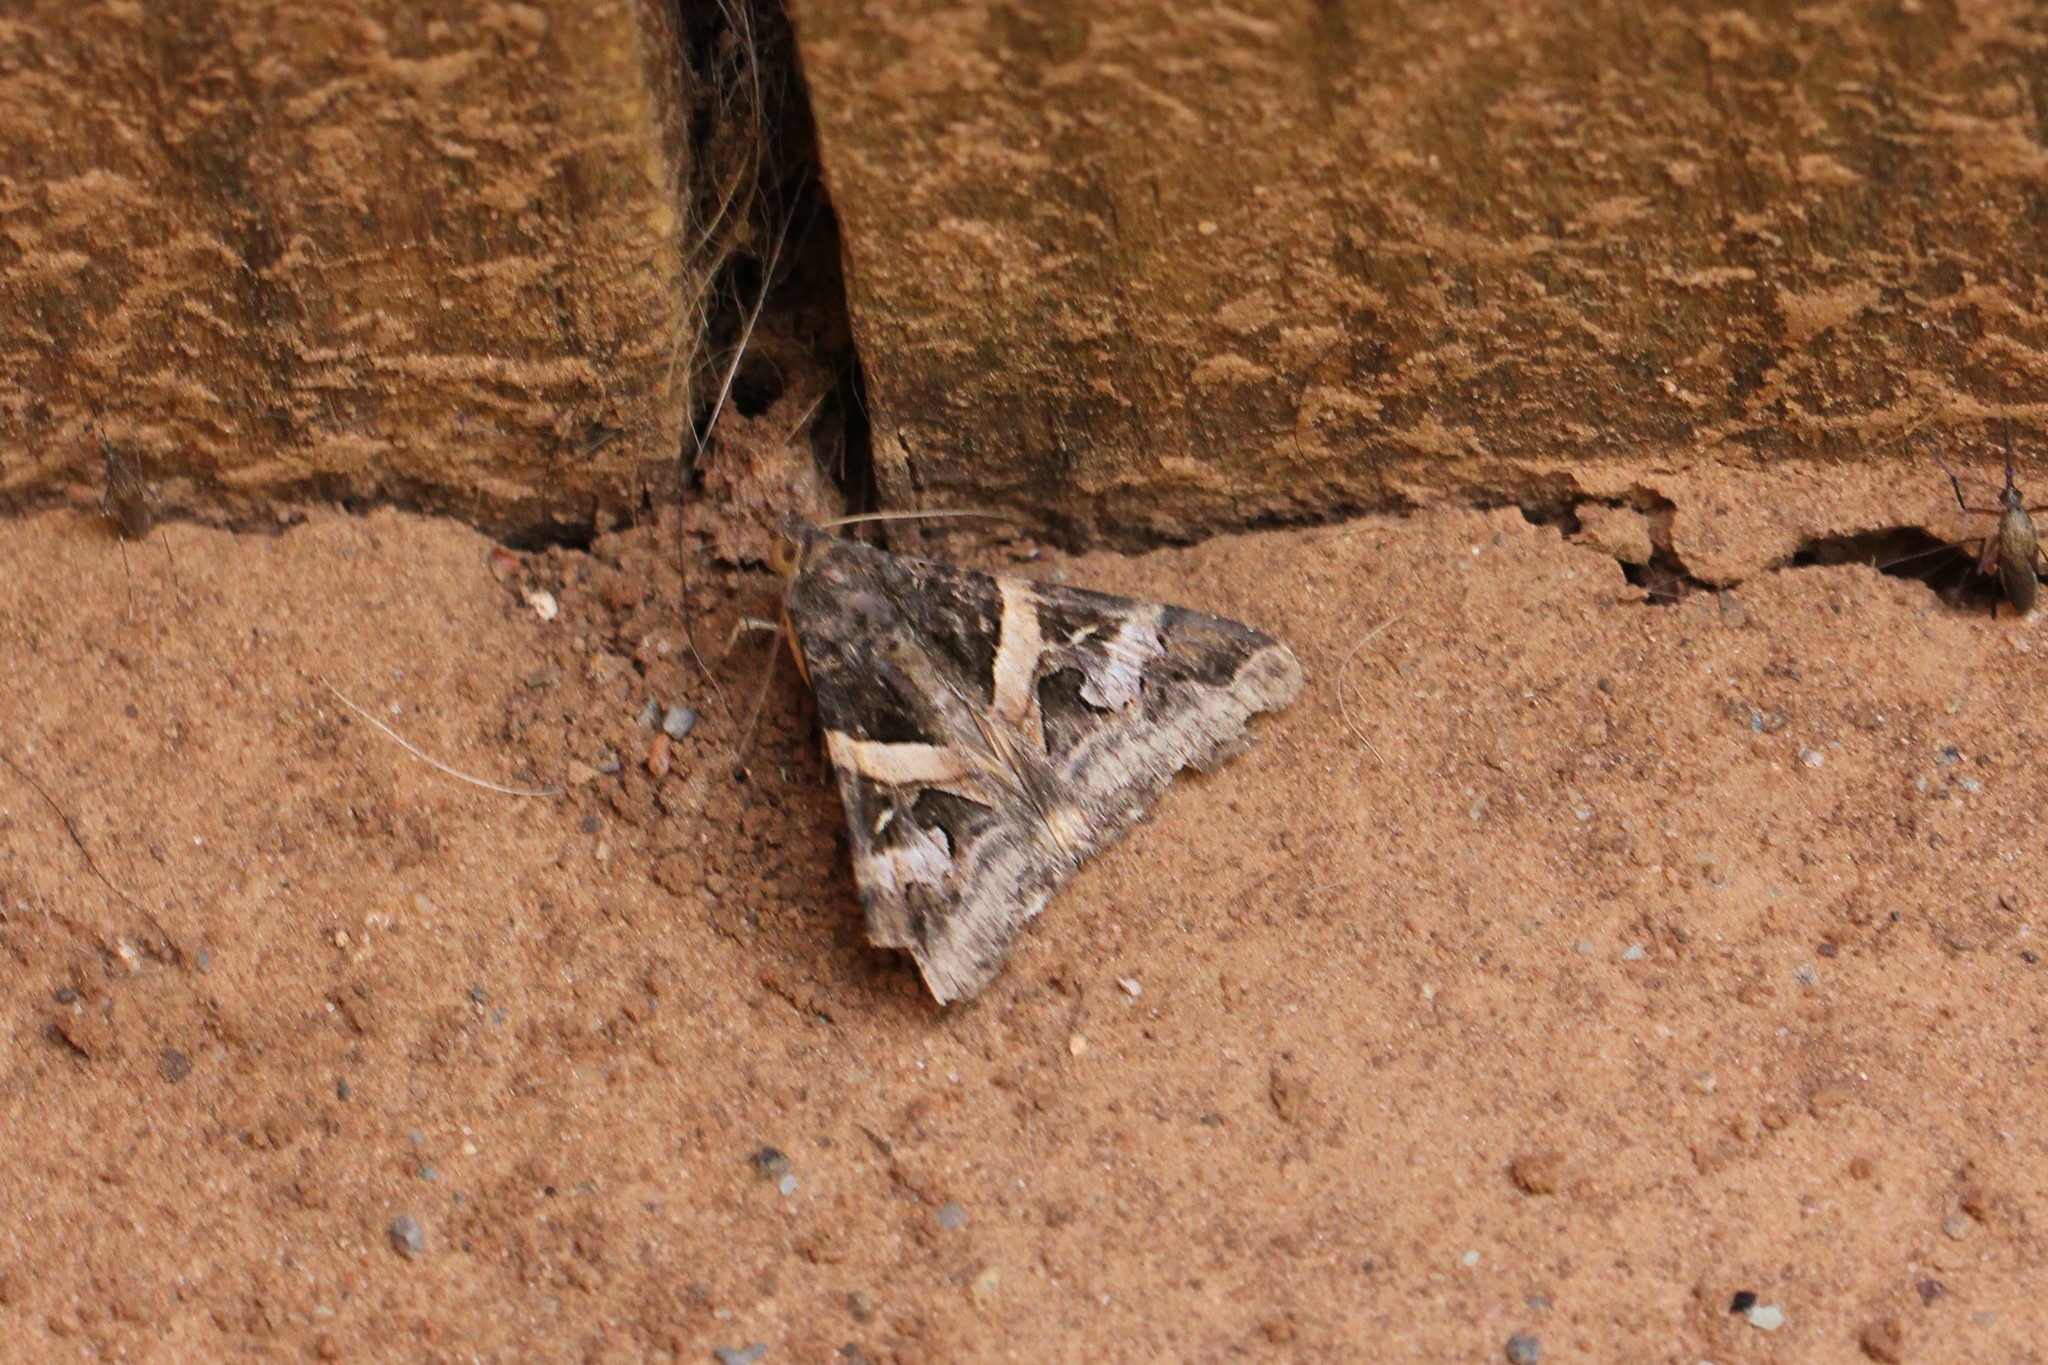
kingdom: Animalia
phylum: Arthropoda
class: Insecta
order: Lepidoptera
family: Erebidae
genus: Melipotis
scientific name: Melipotis indomita
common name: Moth
